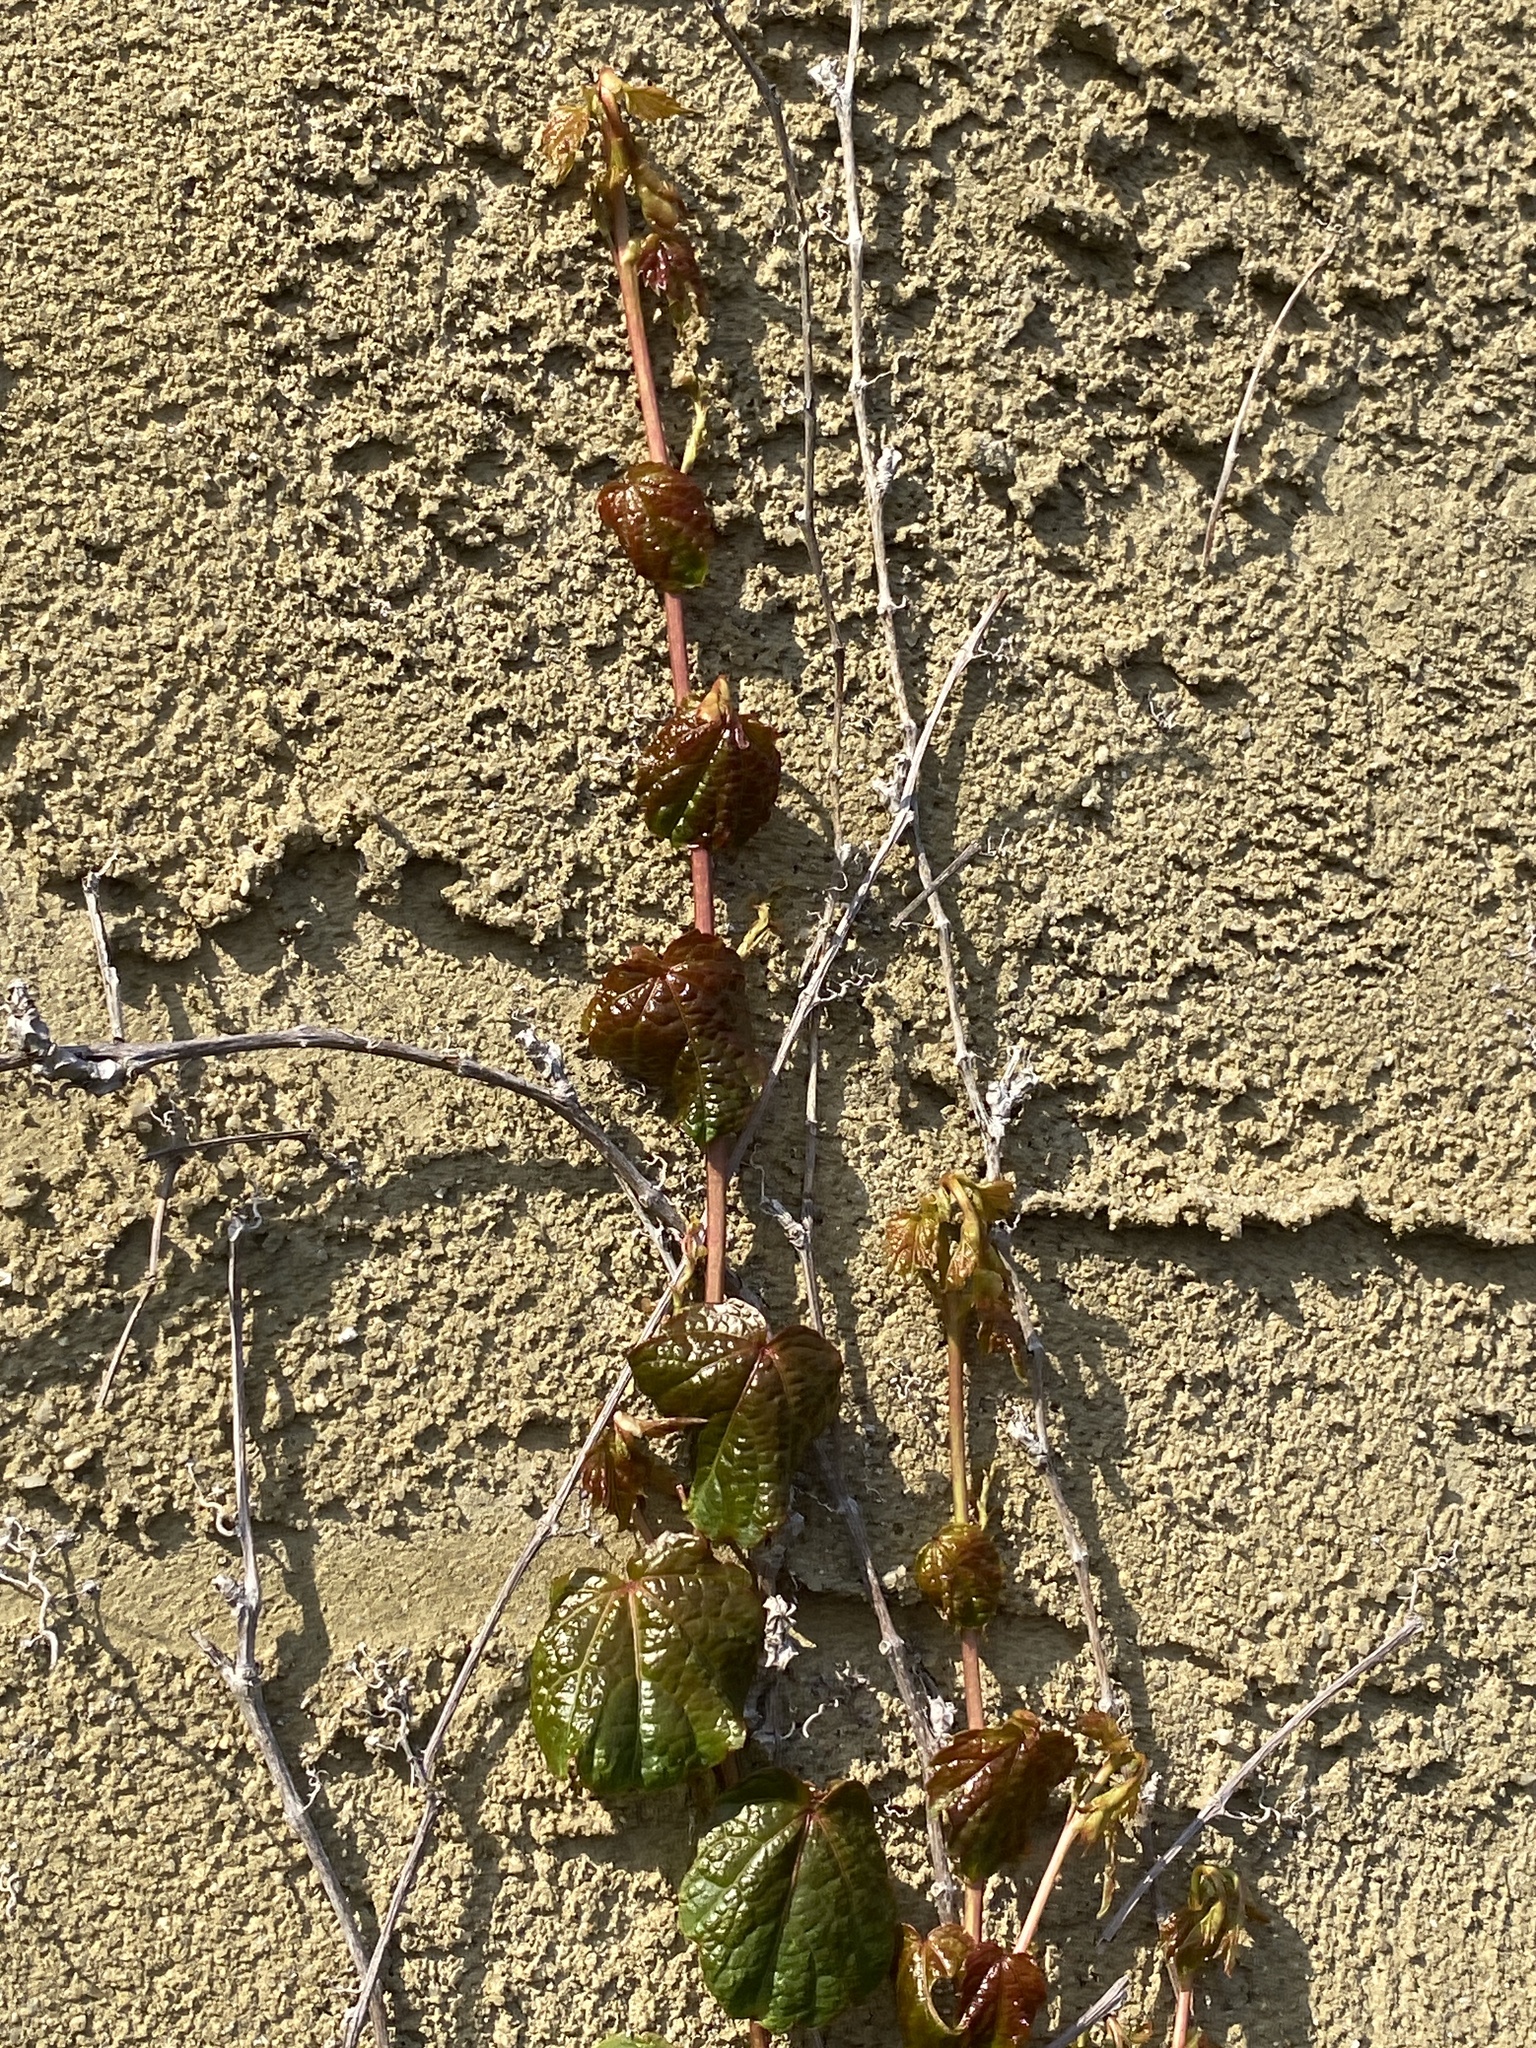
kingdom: Plantae
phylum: Tracheophyta
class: Magnoliopsida
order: Vitales
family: Vitaceae
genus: Parthenocissus
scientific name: Parthenocissus tricuspidata
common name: Boston ivy
